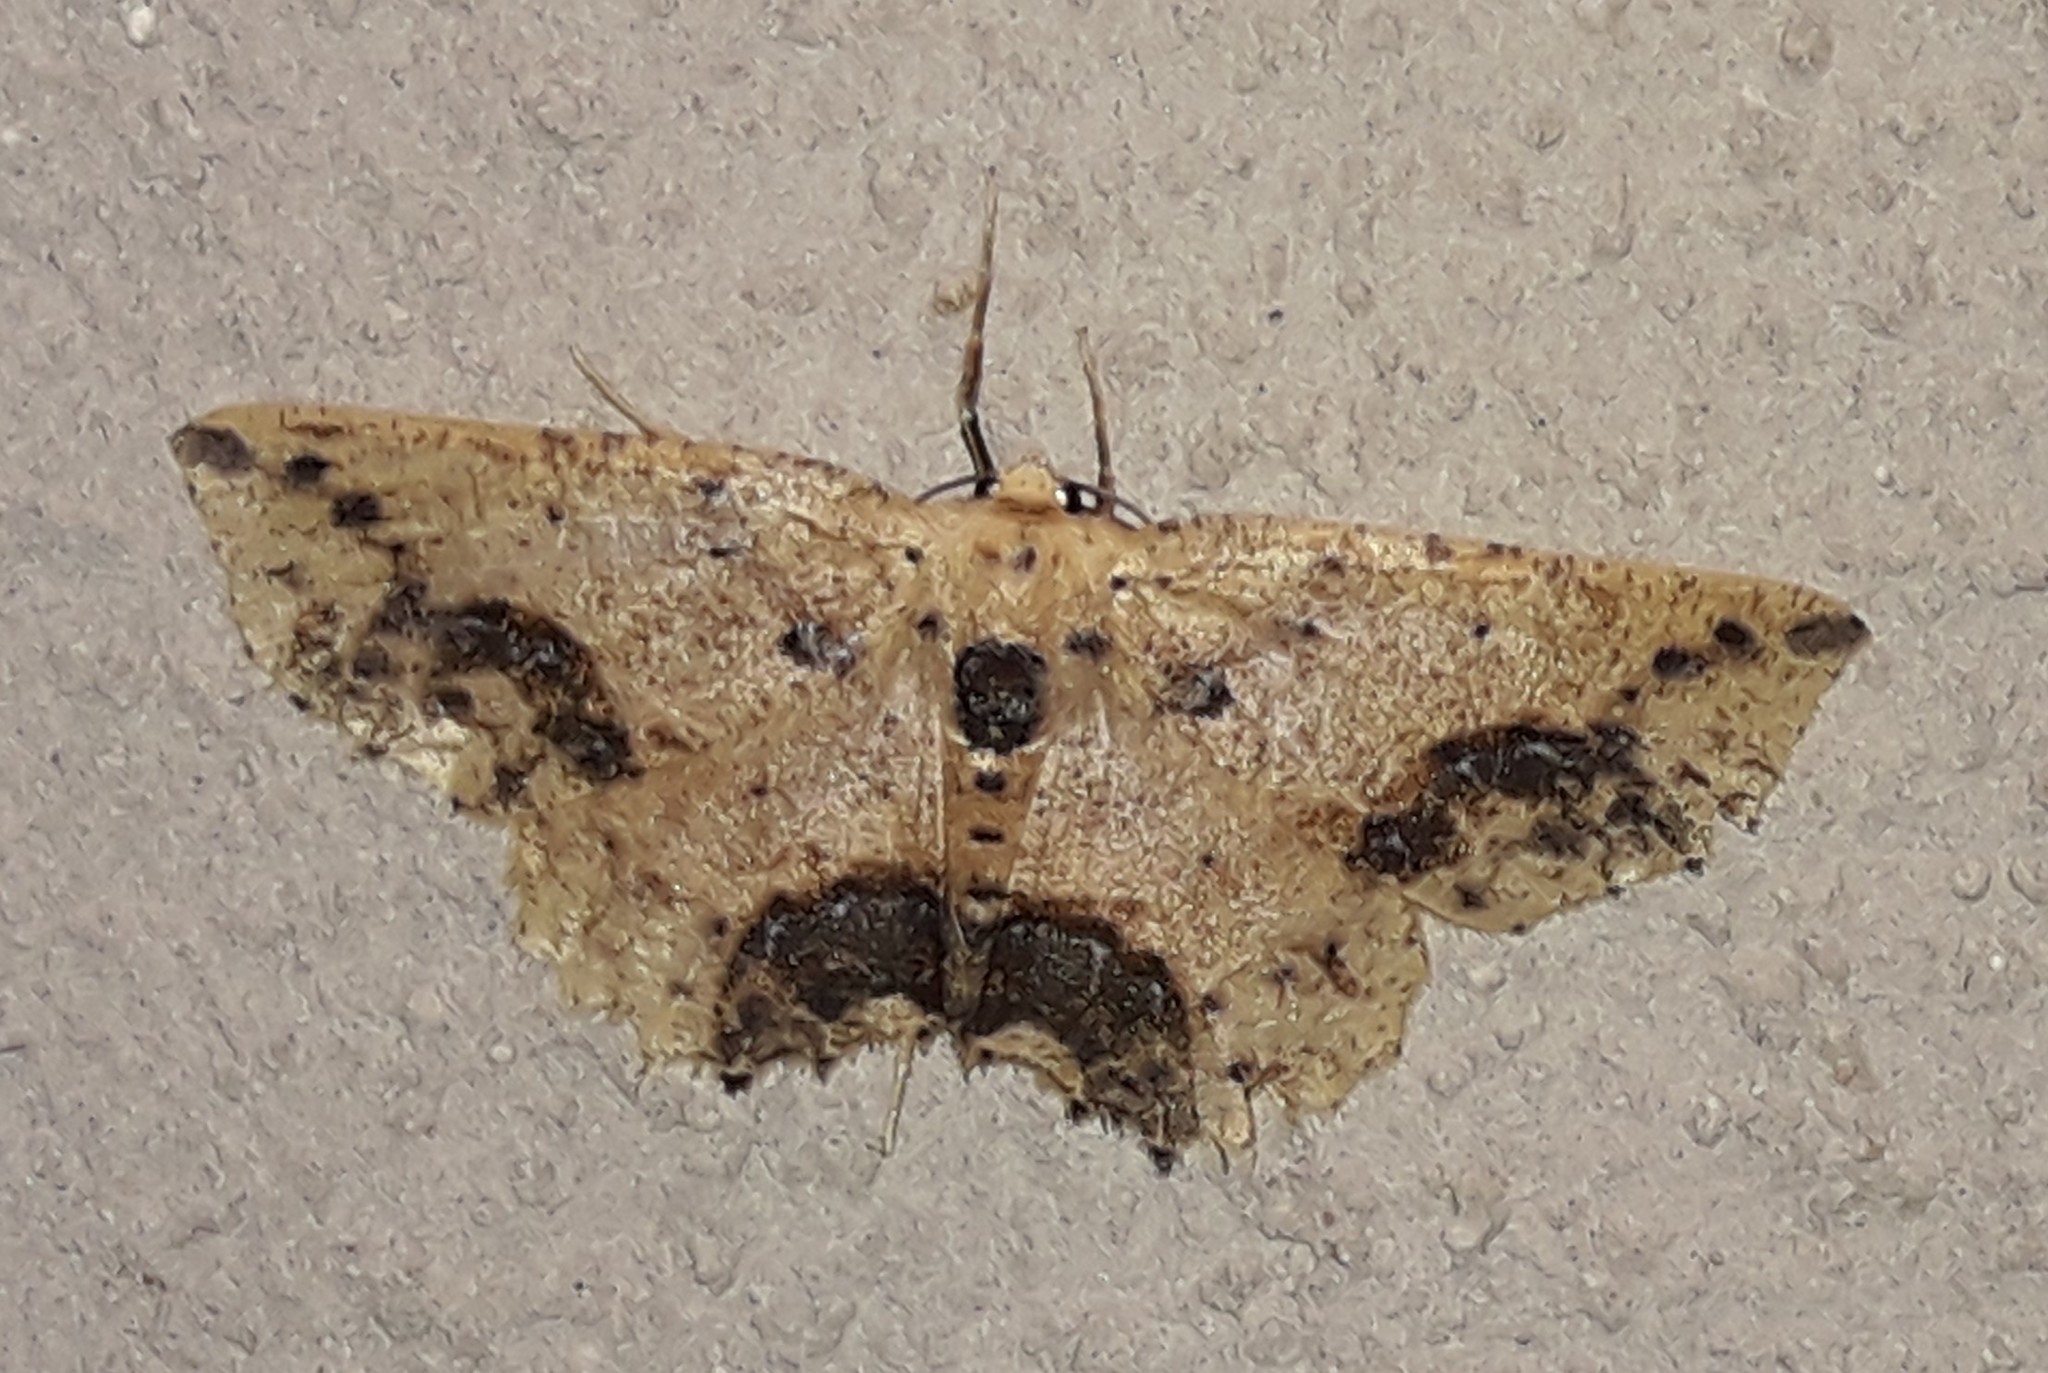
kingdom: Animalia
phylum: Arthropoda
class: Insecta
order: Lepidoptera
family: Geometridae
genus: Isochromodes
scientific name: Isochromodes granula
